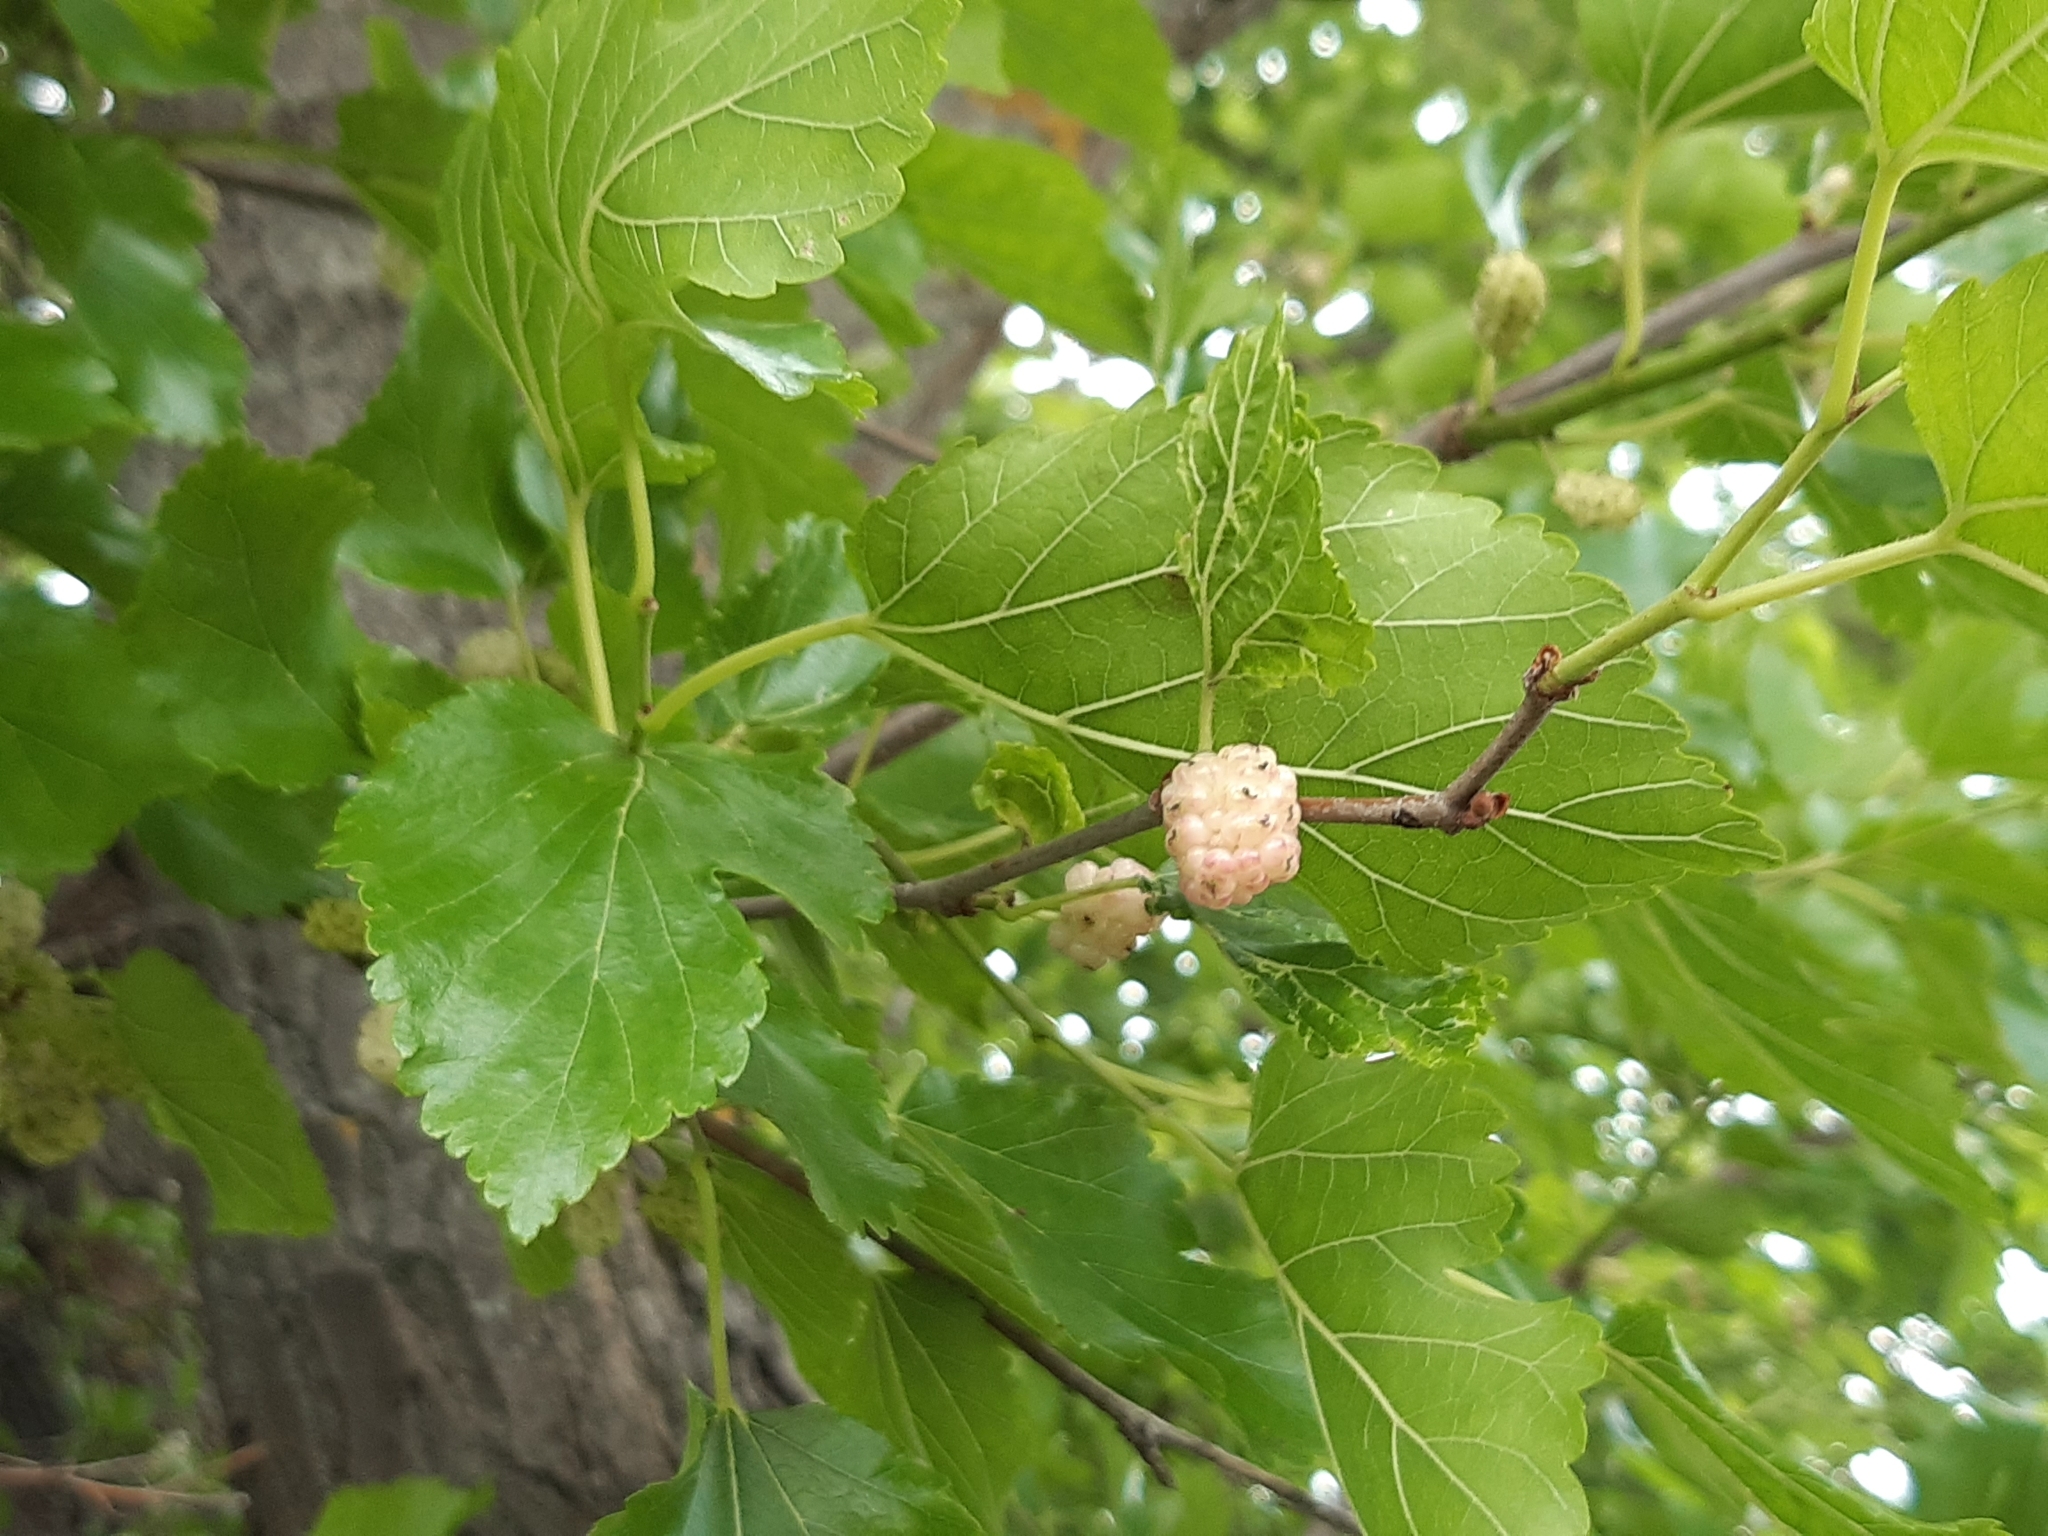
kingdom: Plantae
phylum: Tracheophyta
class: Magnoliopsida
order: Rosales
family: Moraceae
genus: Morus
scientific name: Morus alba
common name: White mulberry
